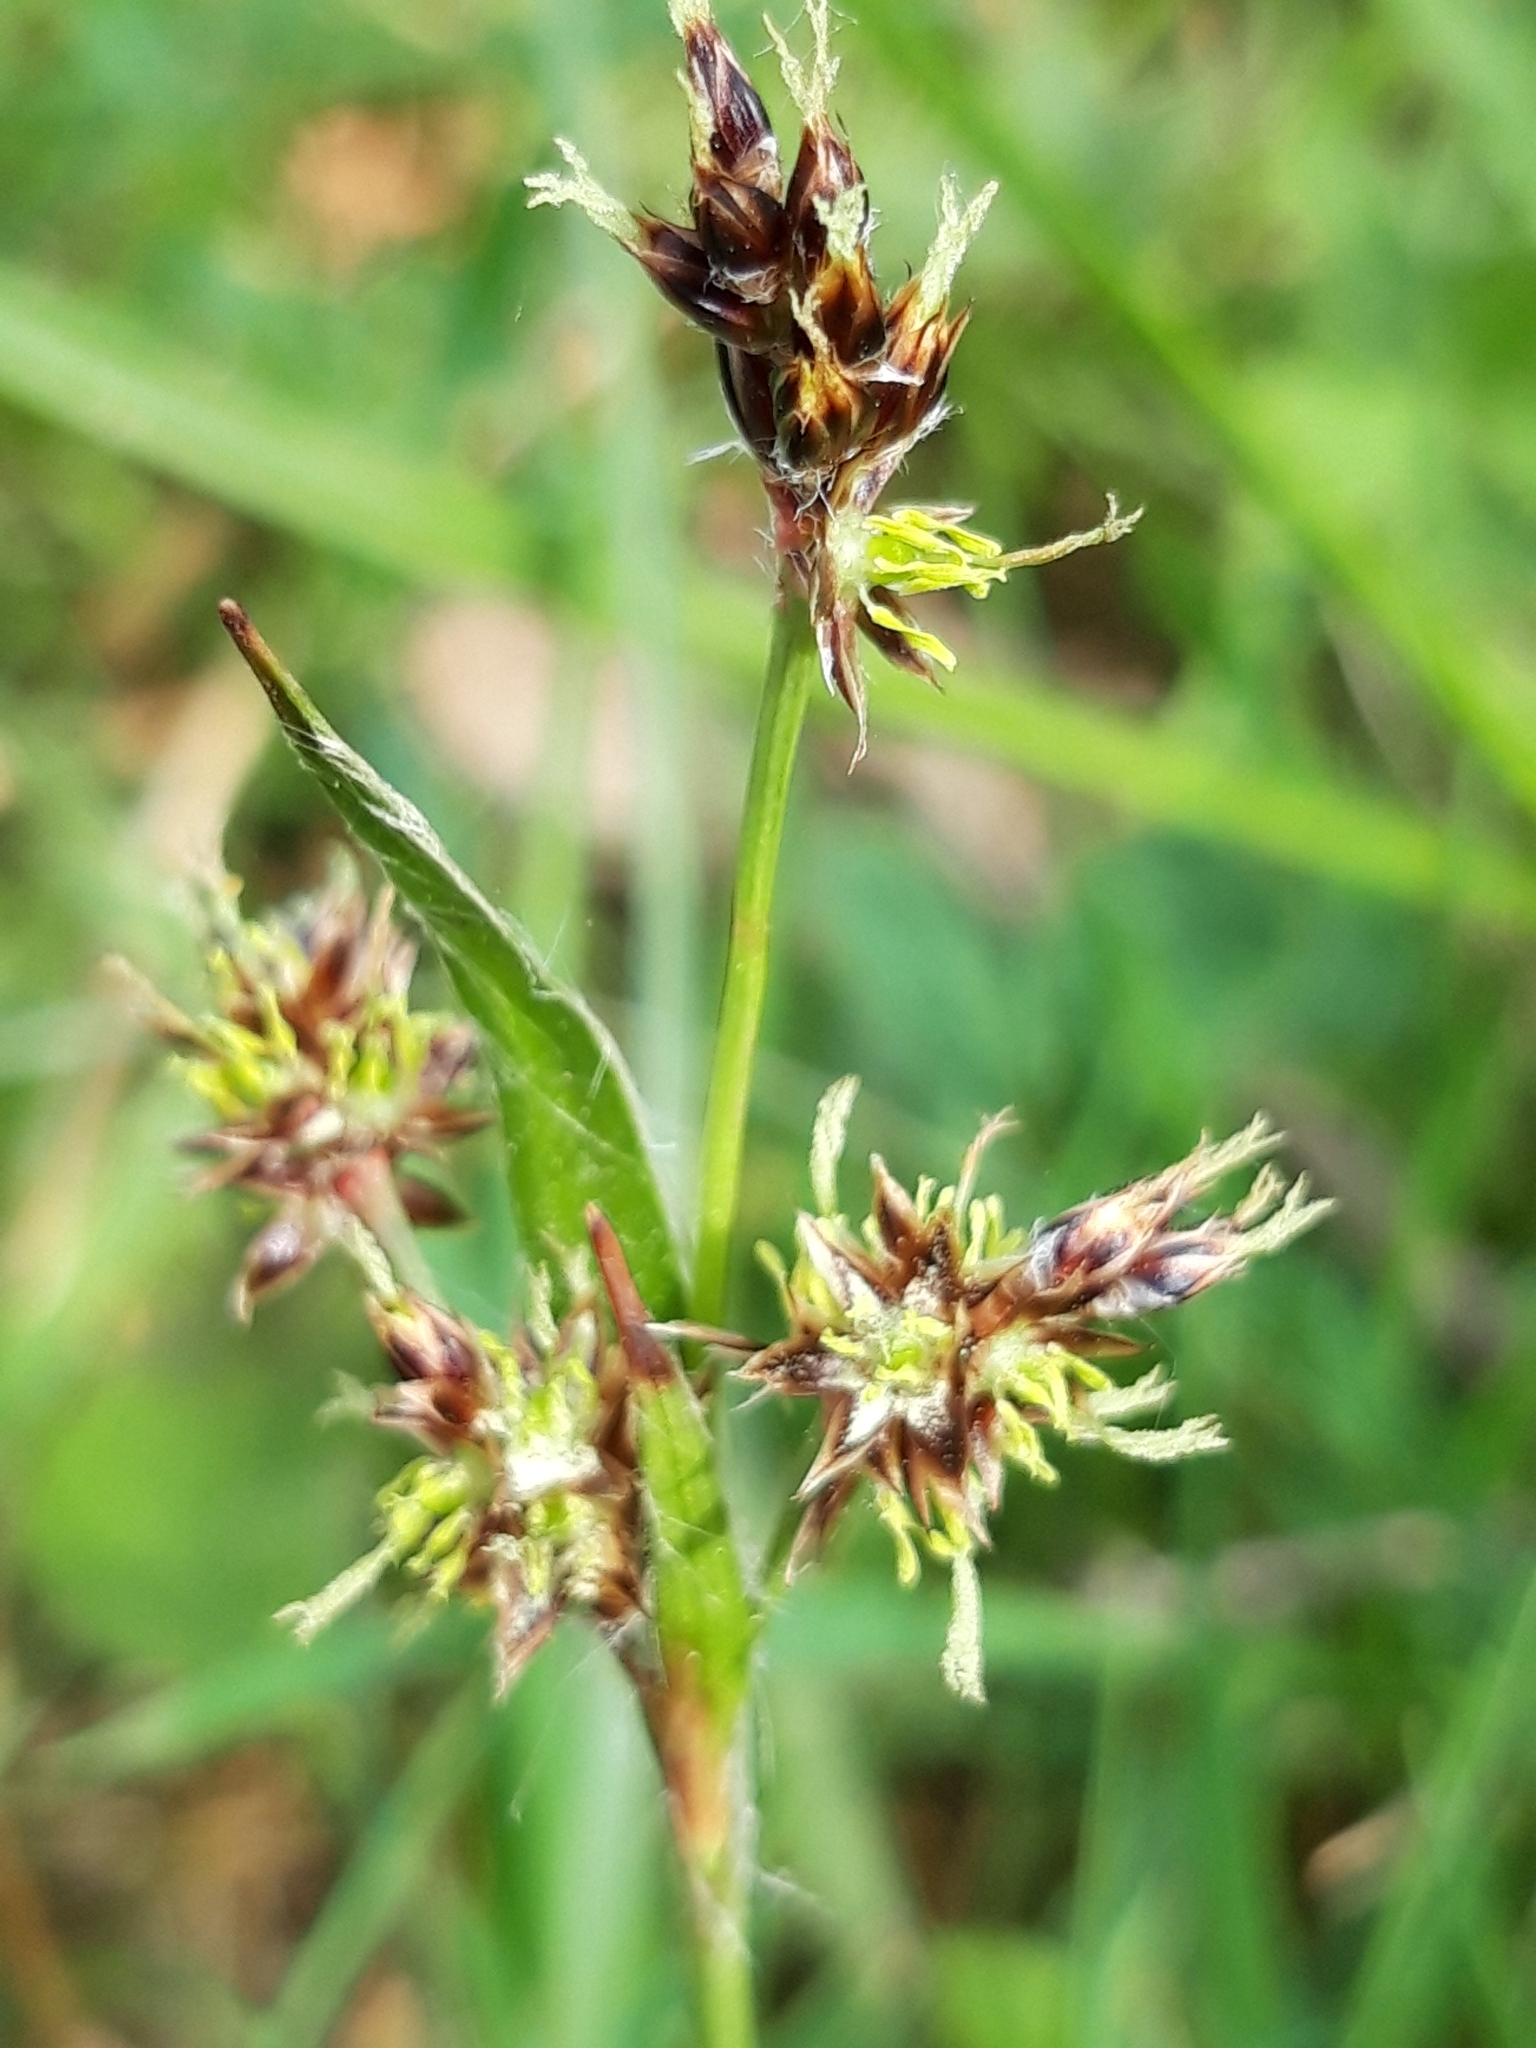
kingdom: Plantae
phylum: Tracheophyta
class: Liliopsida
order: Poales
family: Juncaceae
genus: Luzula
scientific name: Luzula campestris
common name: Field wood-rush
